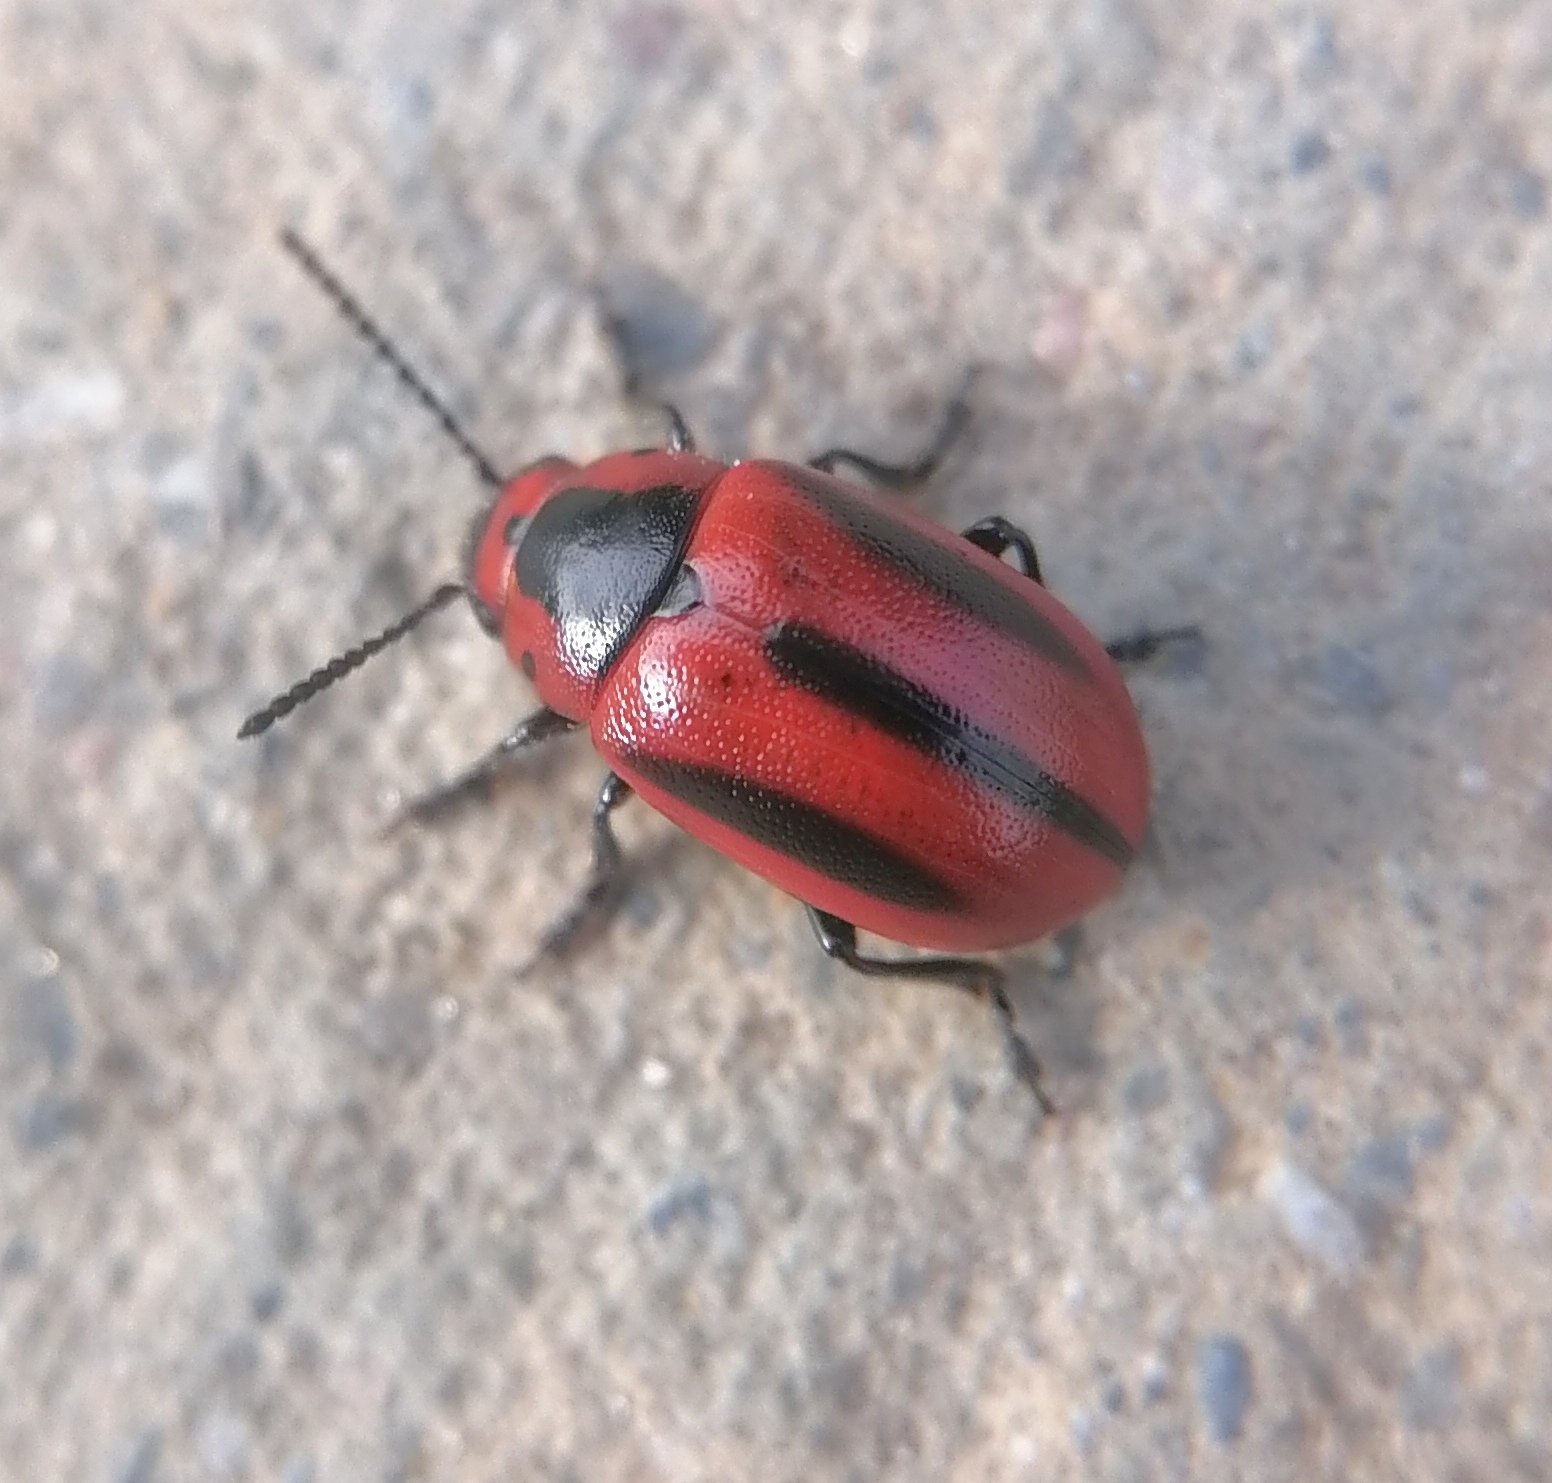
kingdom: Animalia
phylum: Arthropoda
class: Insecta
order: Coleoptera
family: Chrysomelidae
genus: Entomoscelis
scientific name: Entomoscelis adonidis
